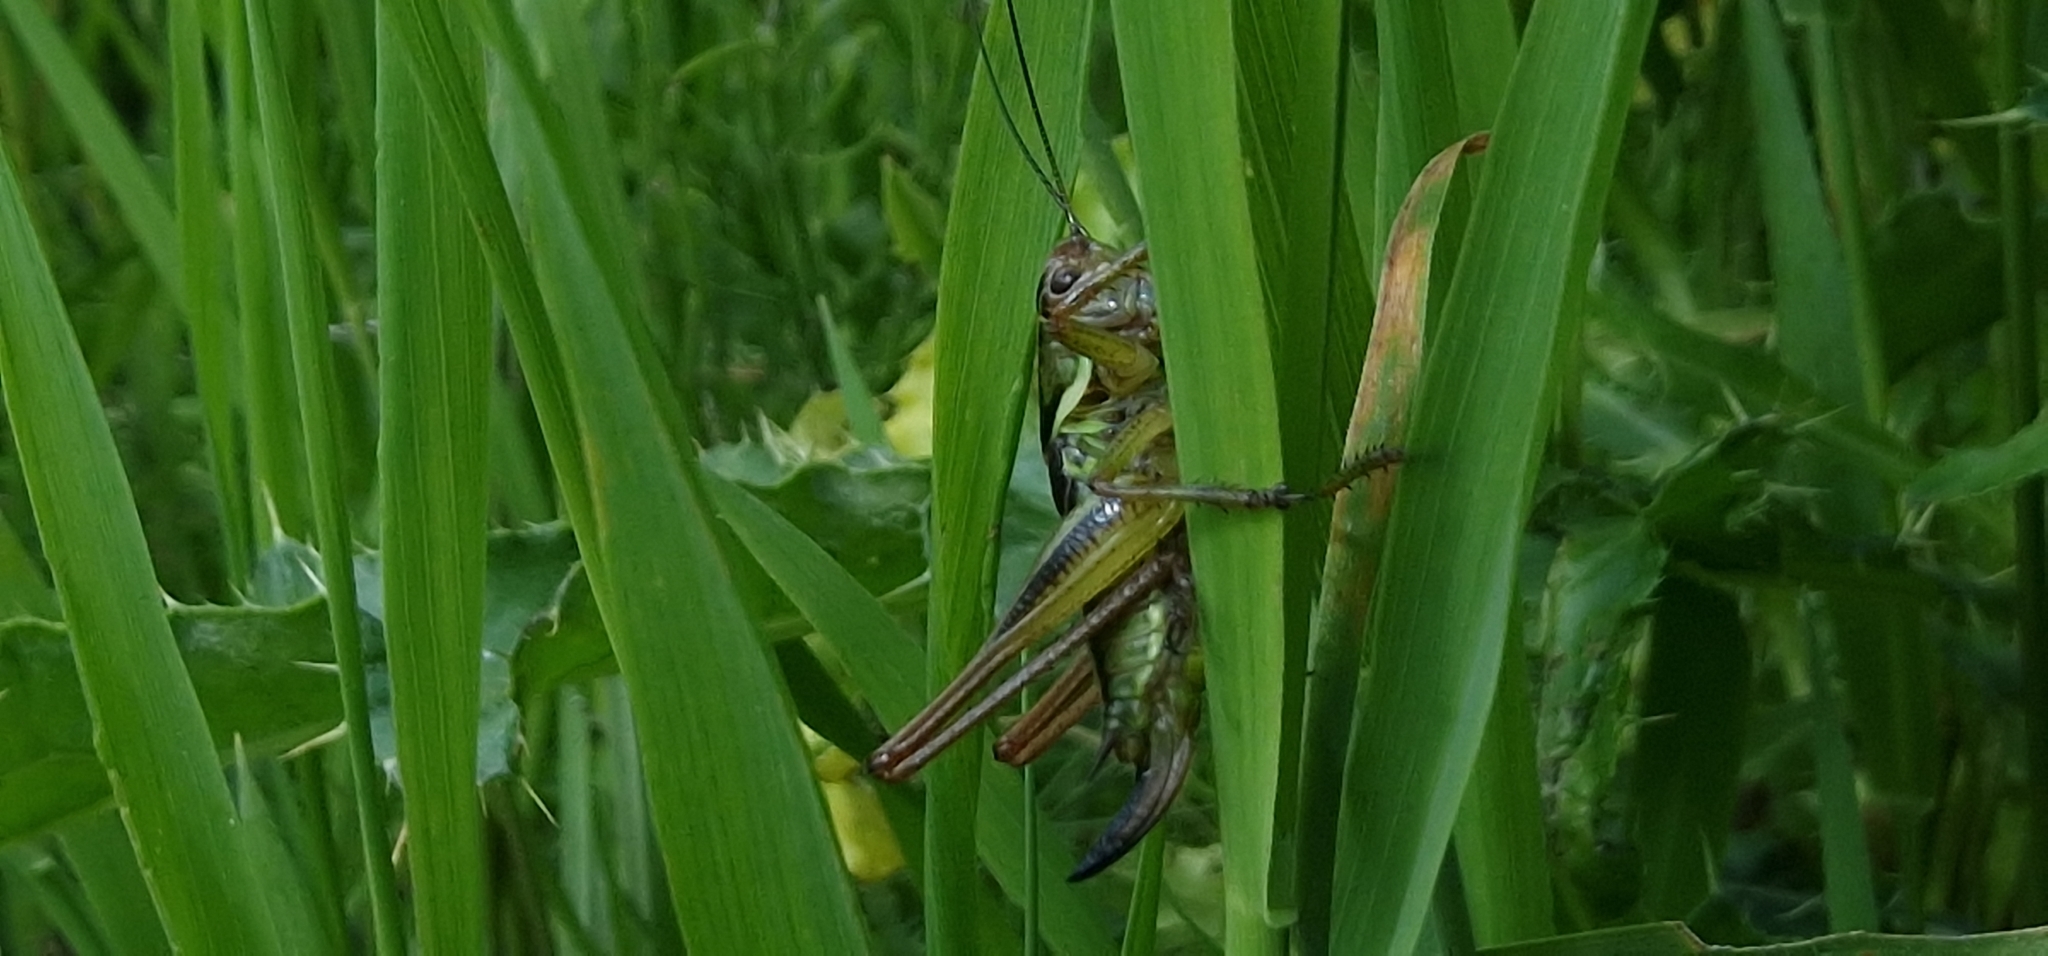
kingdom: Animalia
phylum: Arthropoda
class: Insecta
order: Orthoptera
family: Tettigoniidae
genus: Roeseliana
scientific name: Roeseliana roeselii
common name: Roesel's bush cricket
